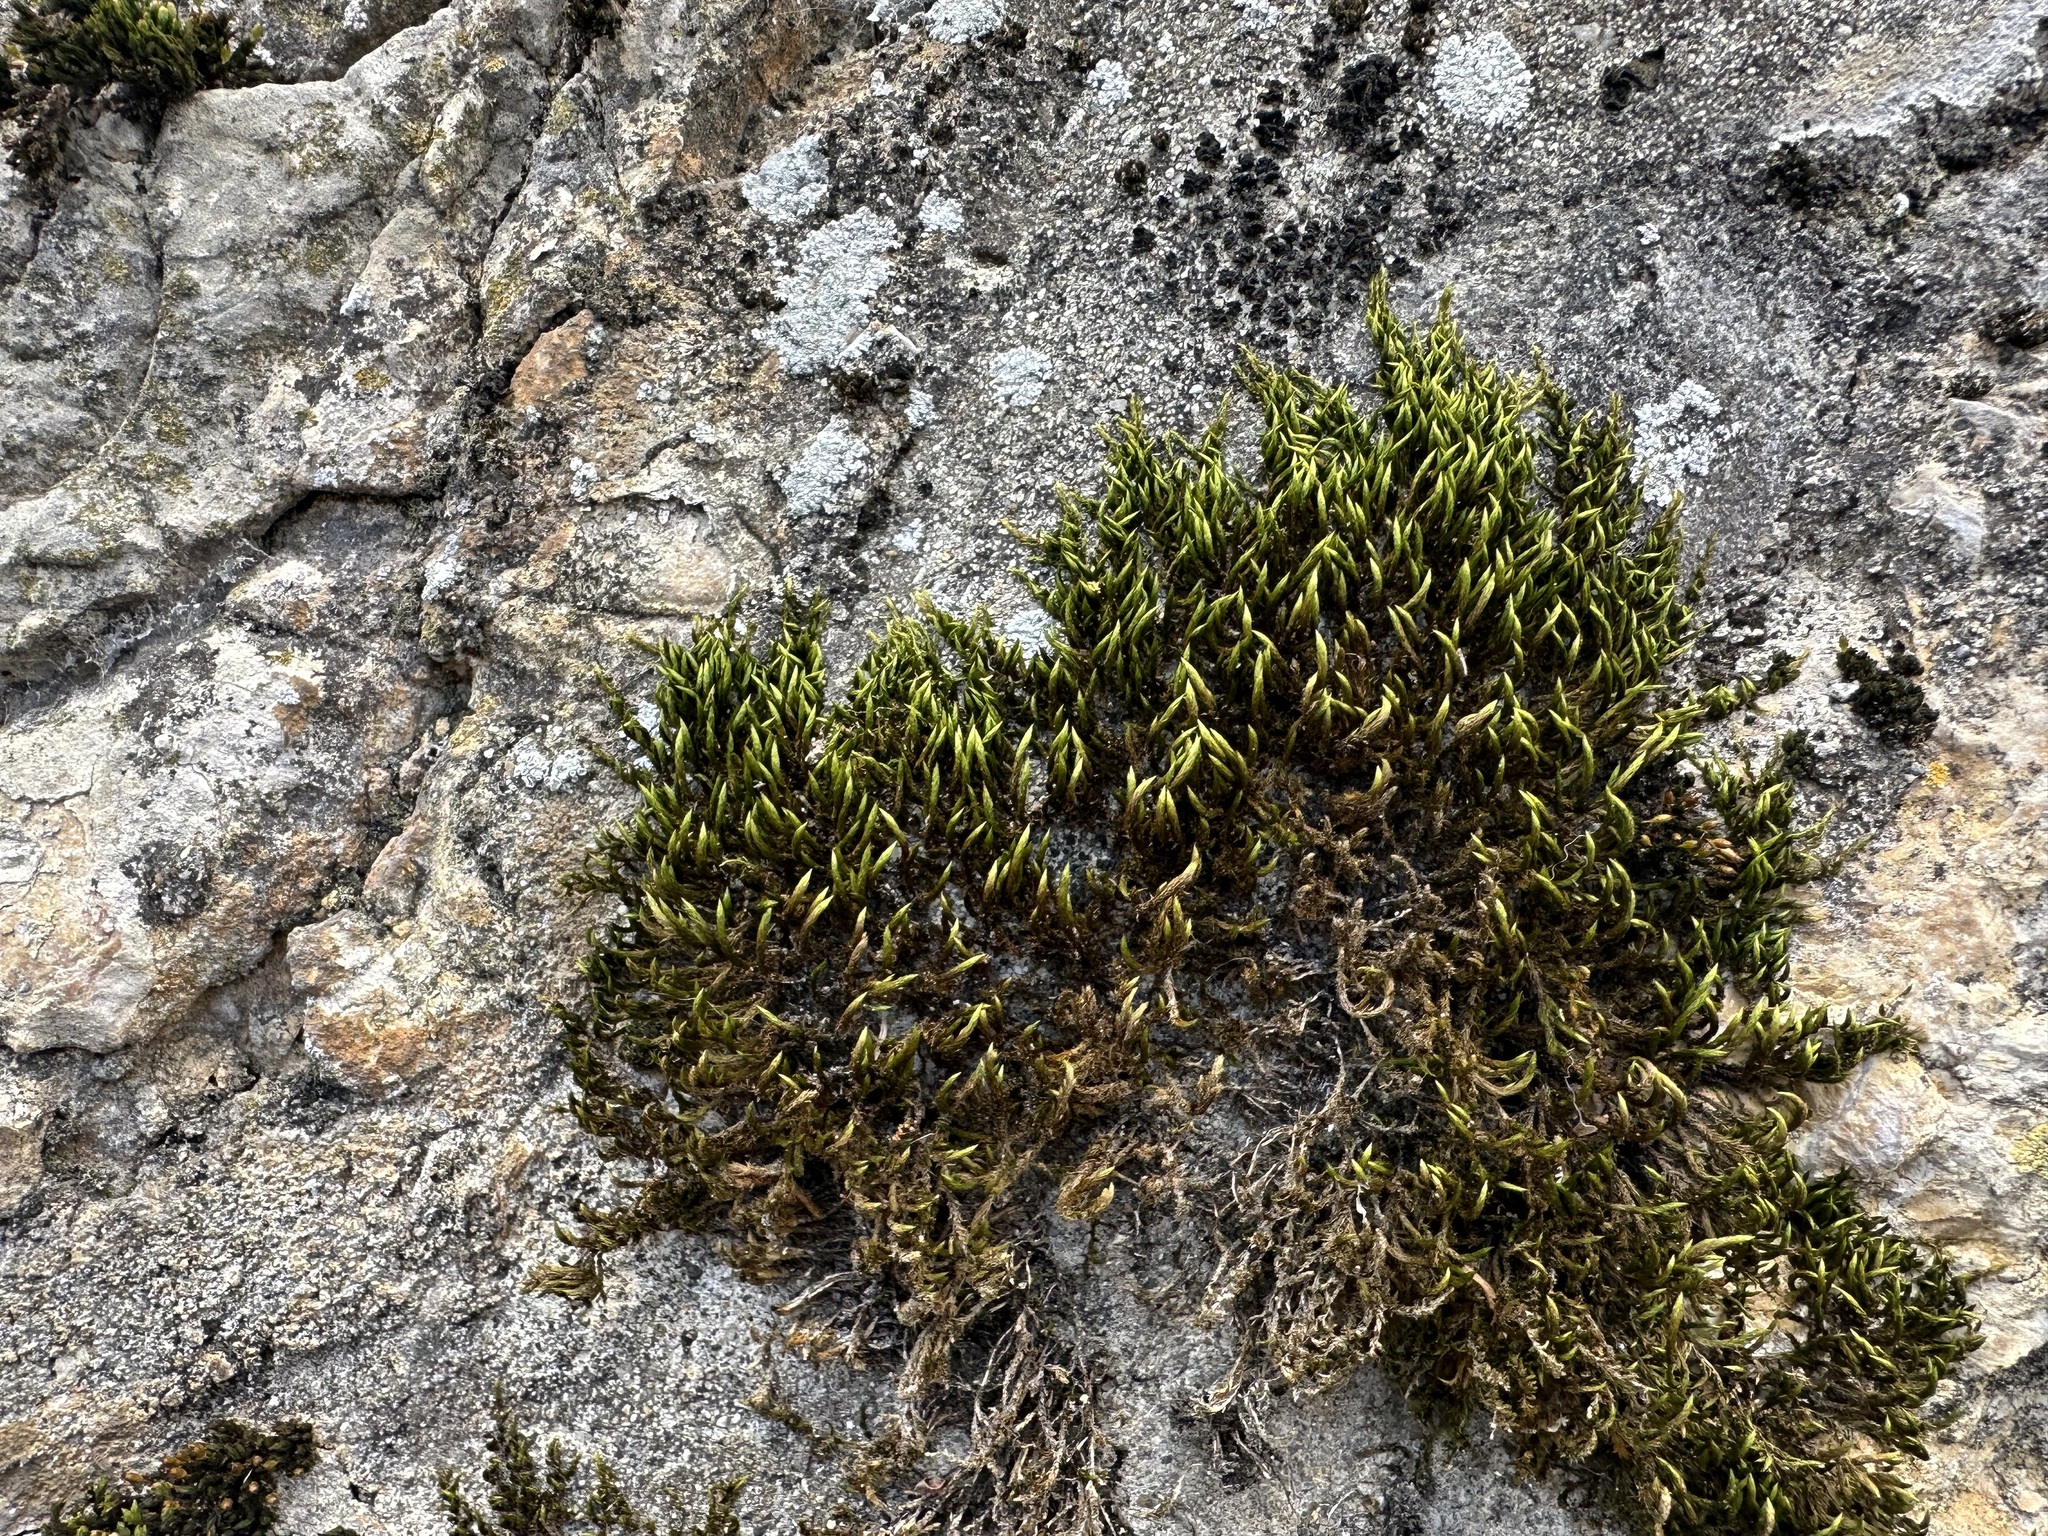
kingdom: Plantae
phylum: Bryophyta
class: Bryopsida
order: Hypnales
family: Leucodontaceae
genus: Leucodon
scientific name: Leucodon sciuroides
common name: Squirrel-tail moss
